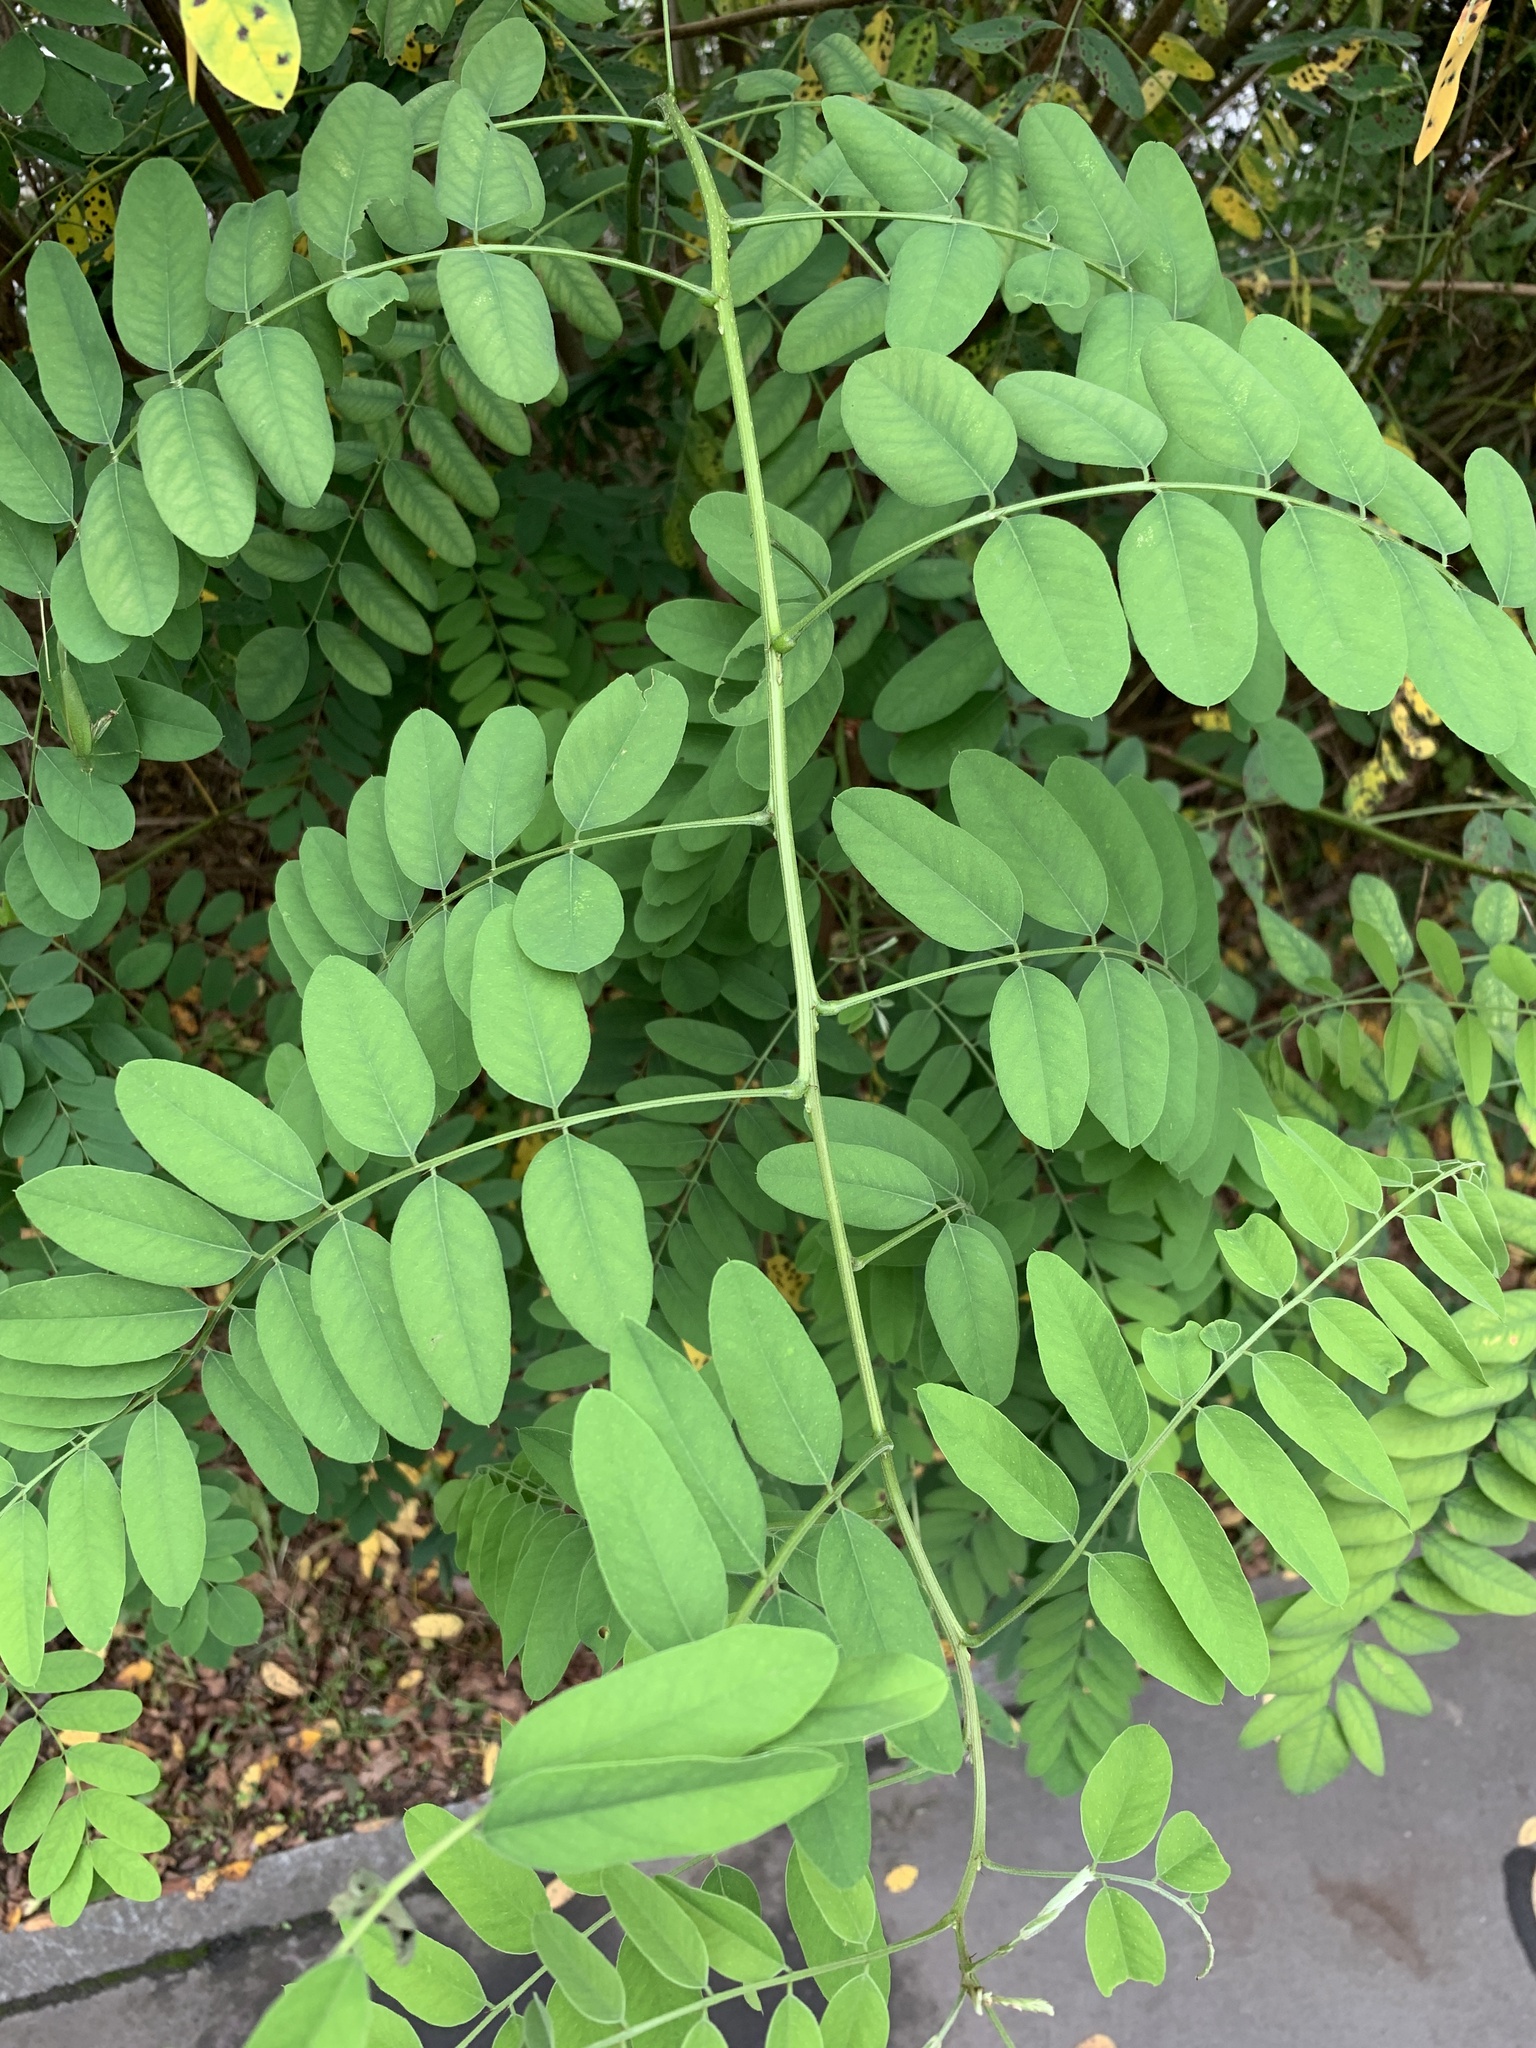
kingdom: Plantae
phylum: Tracheophyta
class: Magnoliopsida
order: Fabales
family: Fabaceae
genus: Robinia
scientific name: Robinia pseudoacacia
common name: Black locust
